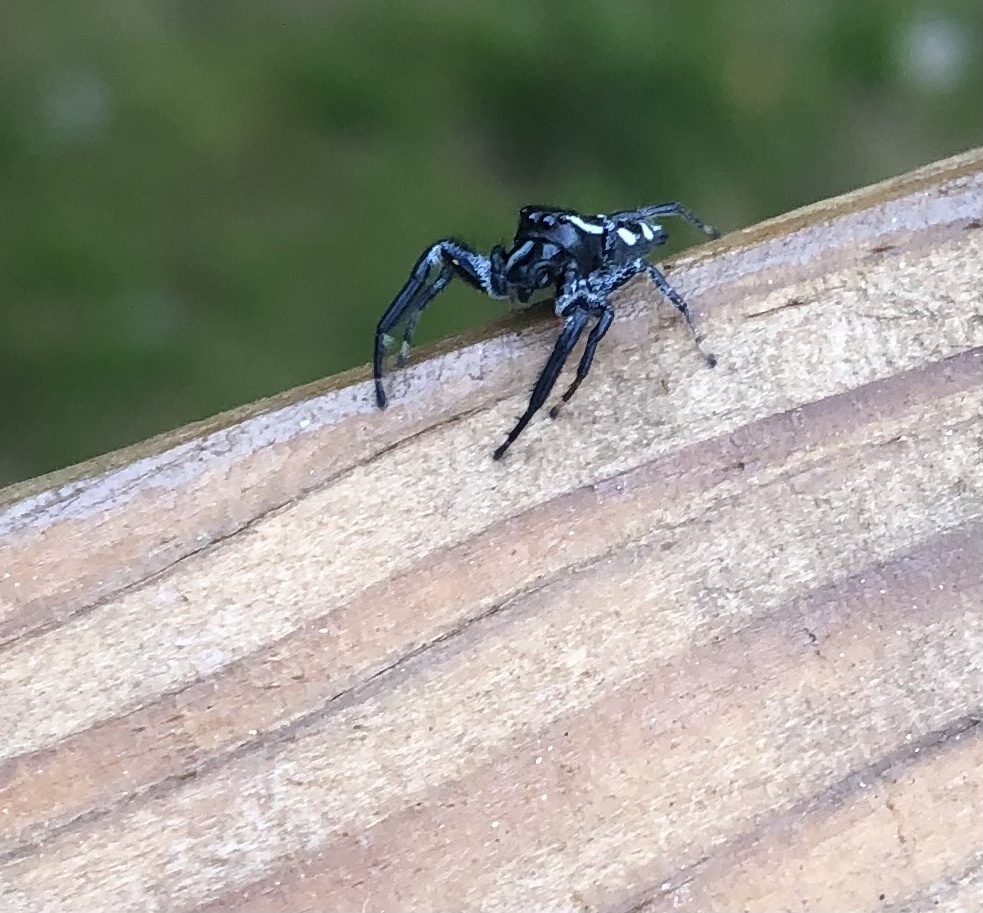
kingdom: Animalia
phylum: Arthropoda
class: Arachnida
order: Araneae
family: Salticidae
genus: Paraphidippus
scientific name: Paraphidippus aurantius
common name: Jumping spiders
